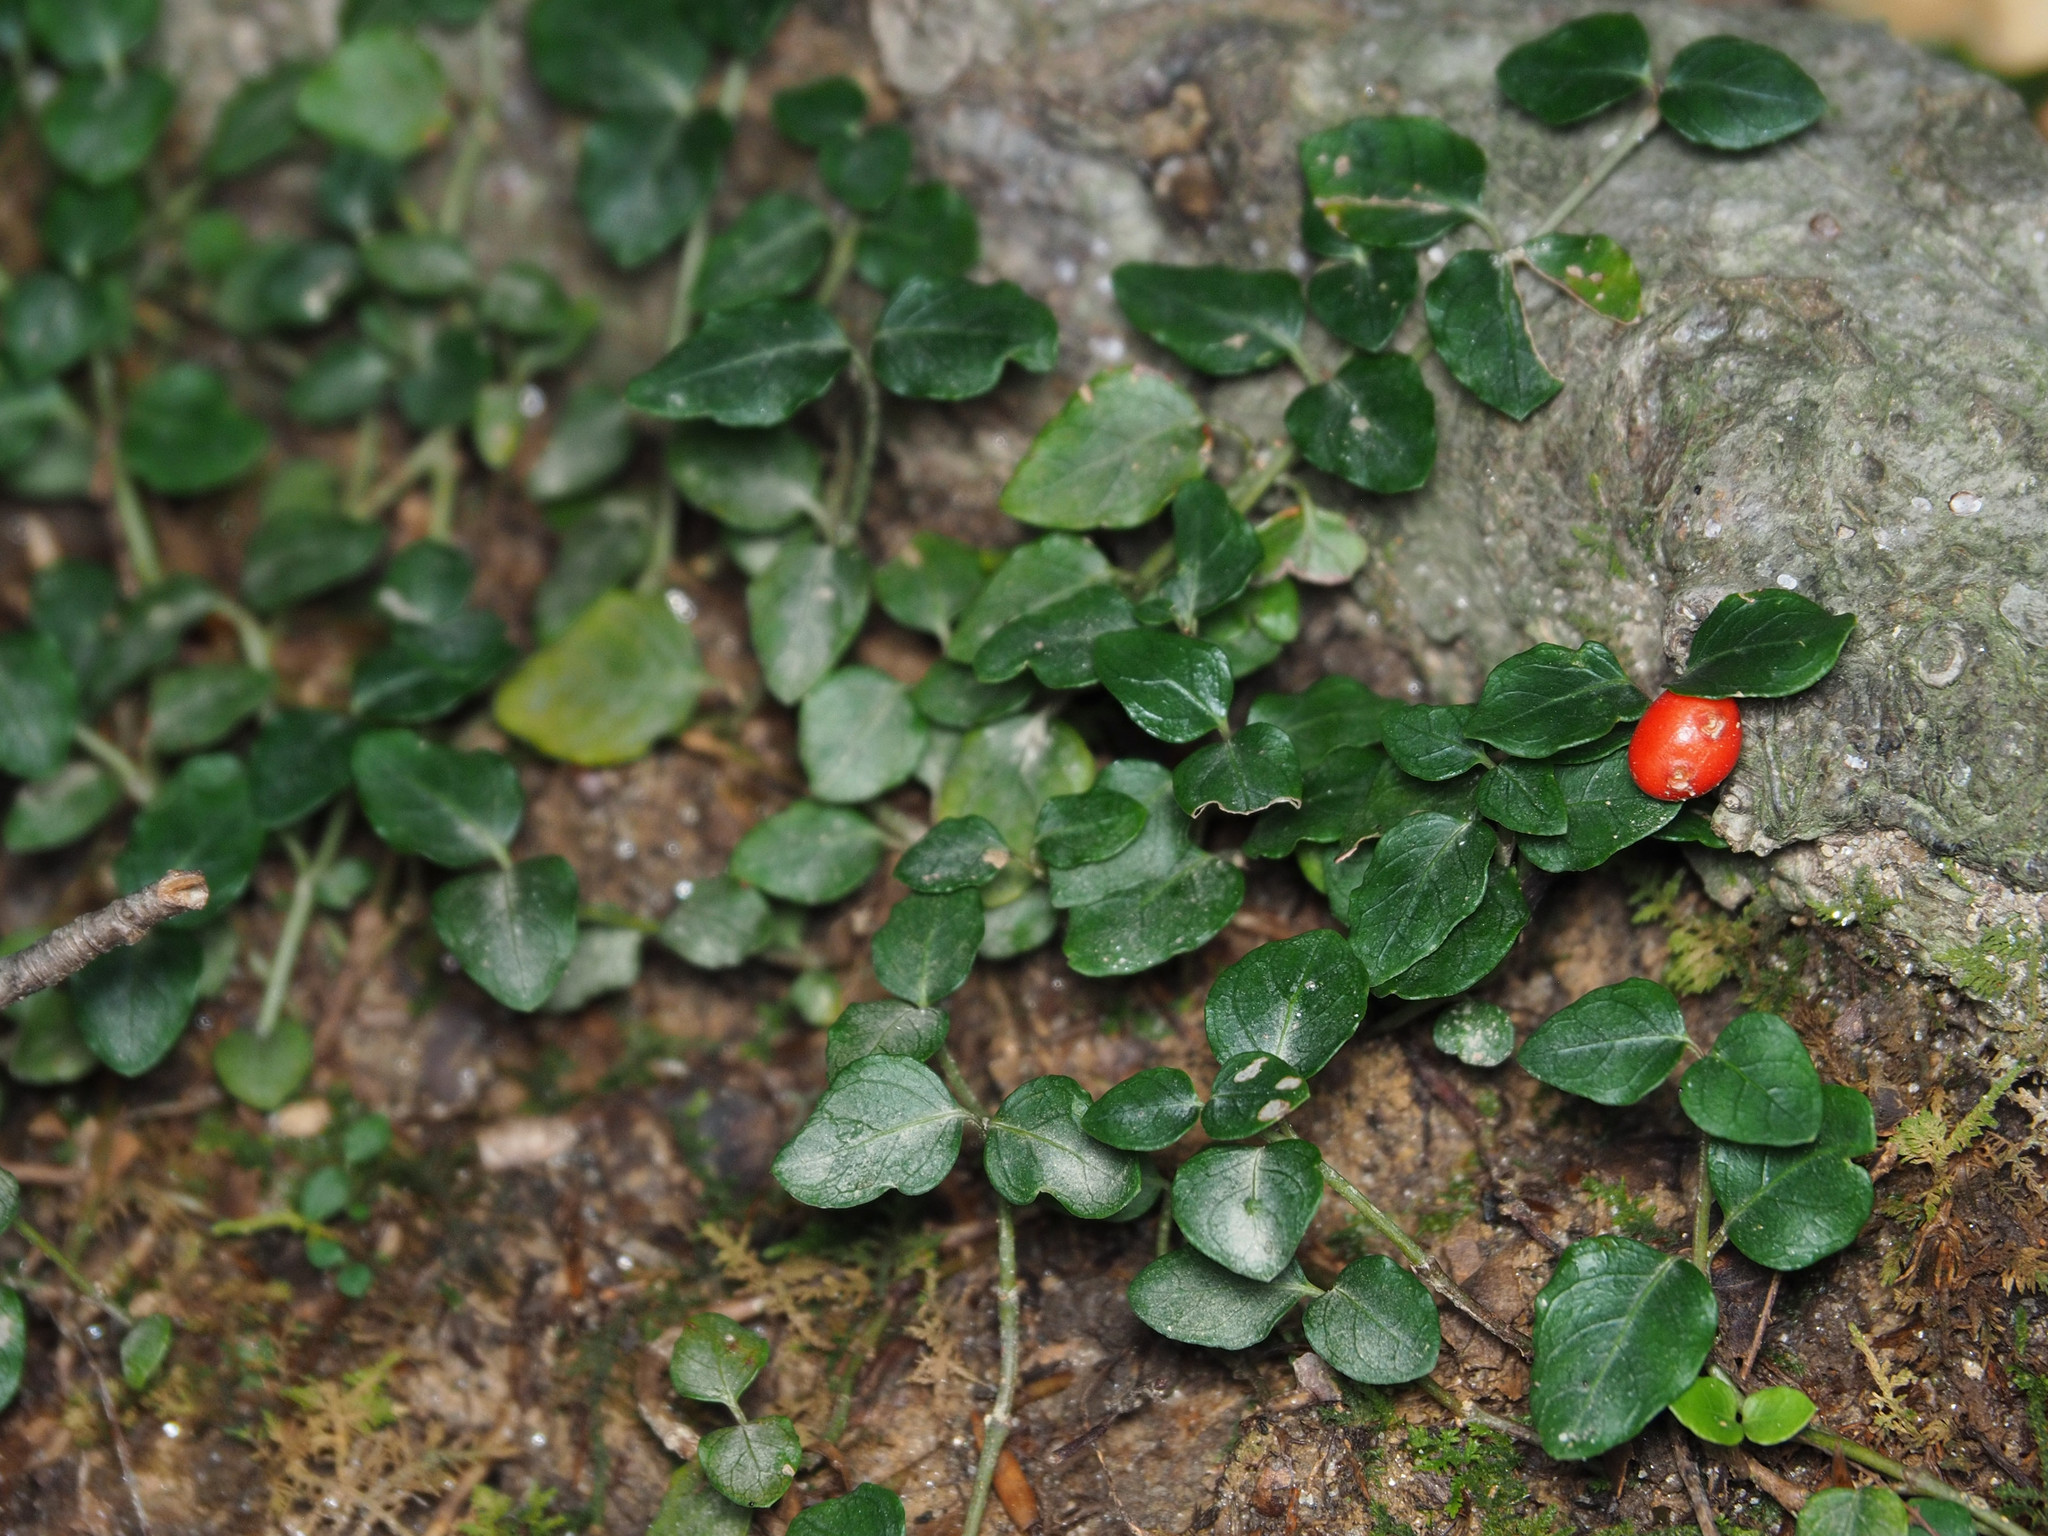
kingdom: Plantae
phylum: Tracheophyta
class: Magnoliopsida
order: Gentianales
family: Rubiaceae
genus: Mitchella
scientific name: Mitchella repens
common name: Partridge-berry
